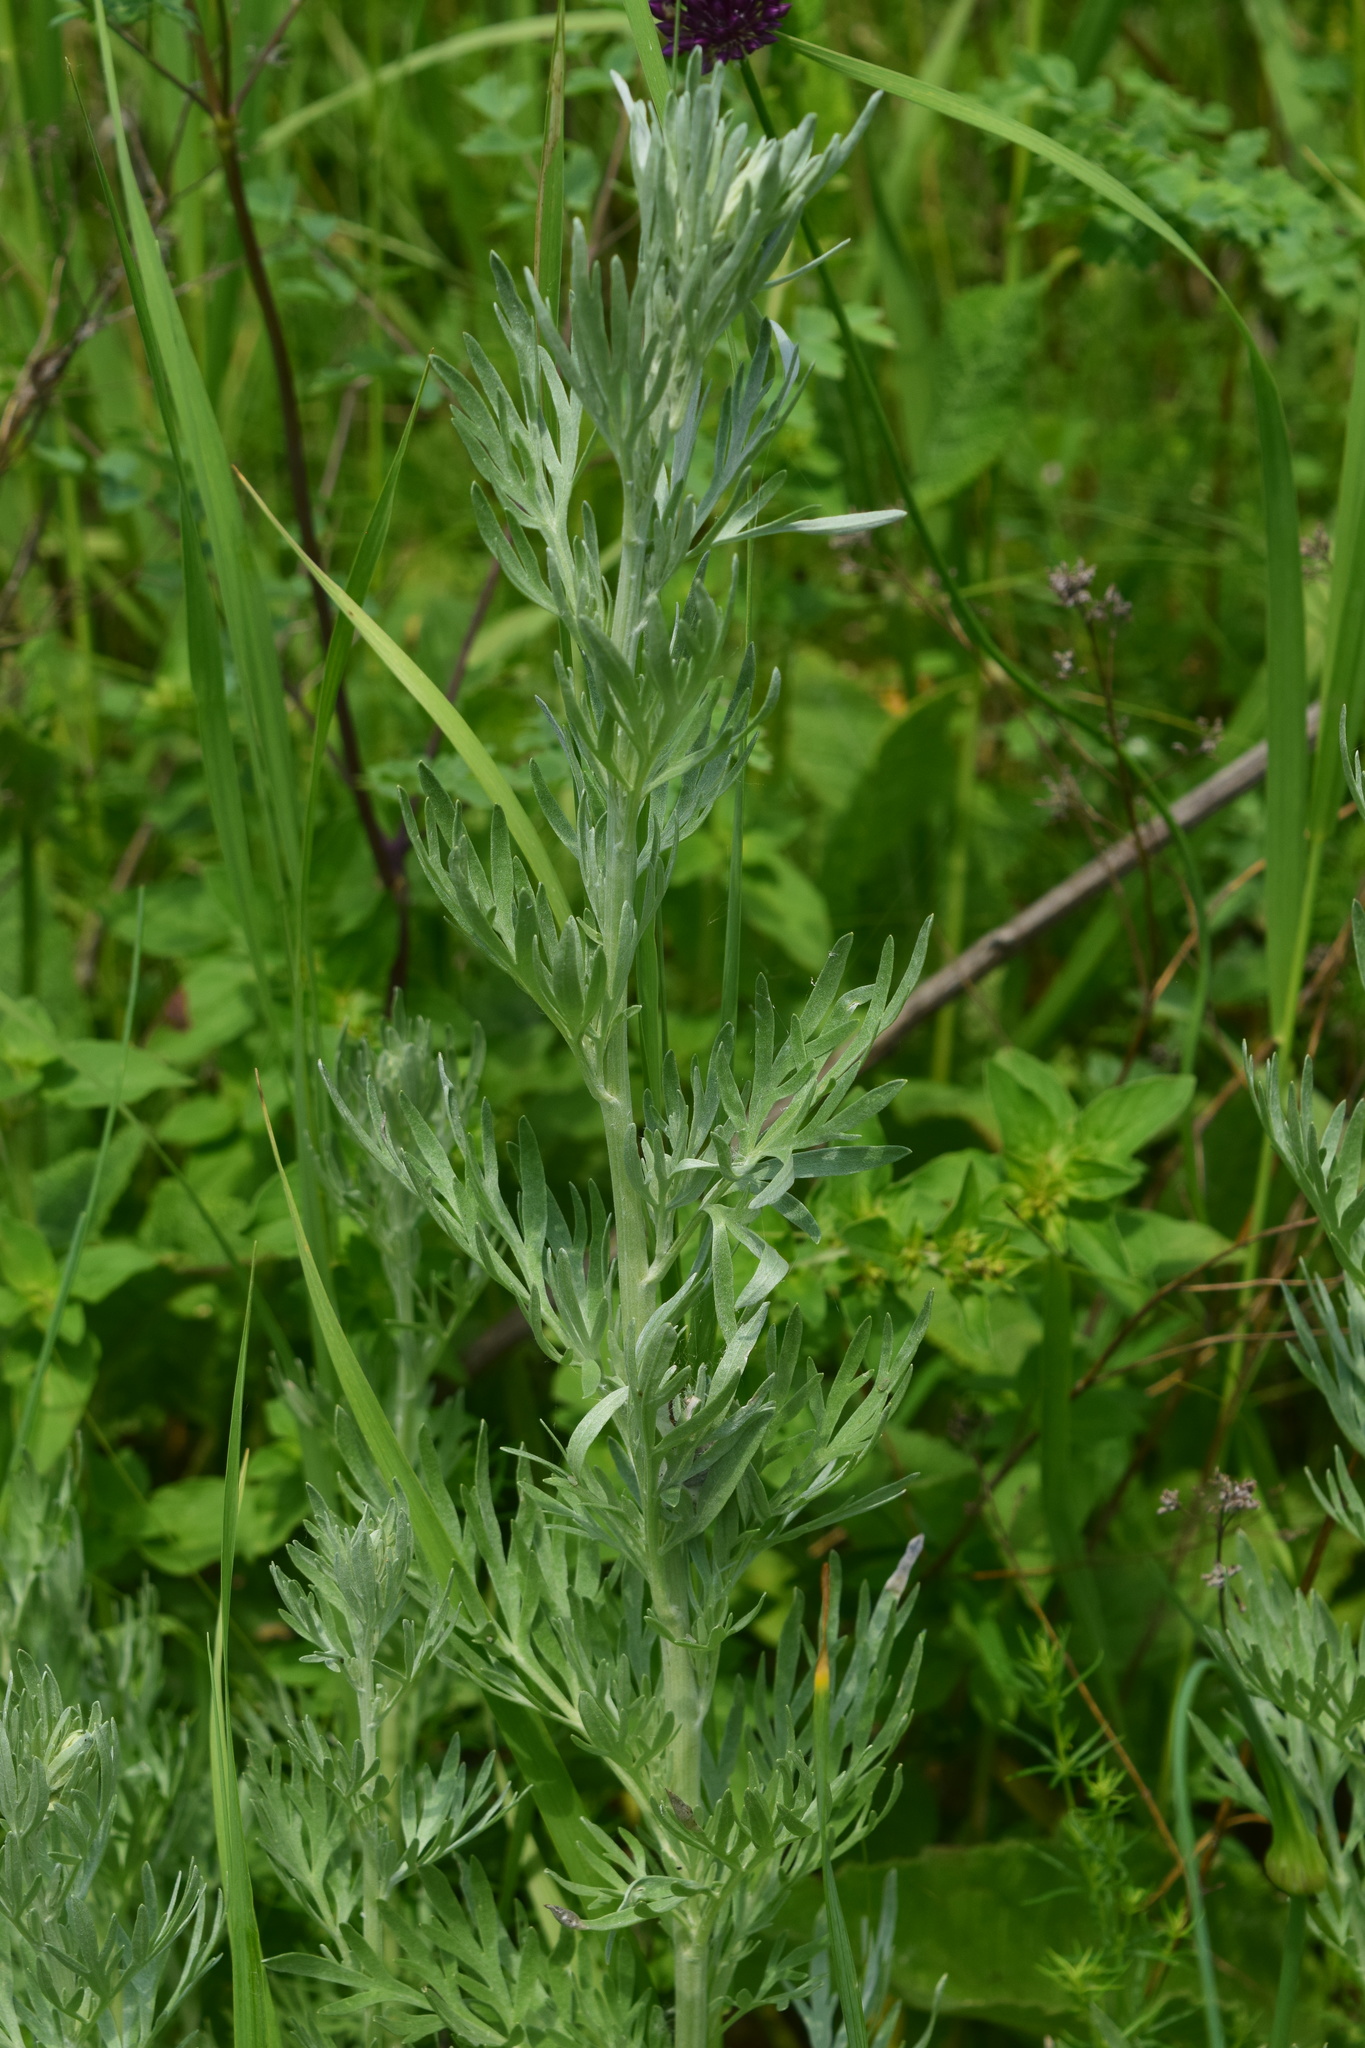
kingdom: Plantae
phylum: Tracheophyta
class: Magnoliopsida
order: Asterales
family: Asteraceae
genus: Artemisia
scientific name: Artemisia absinthium
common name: Wormwood
